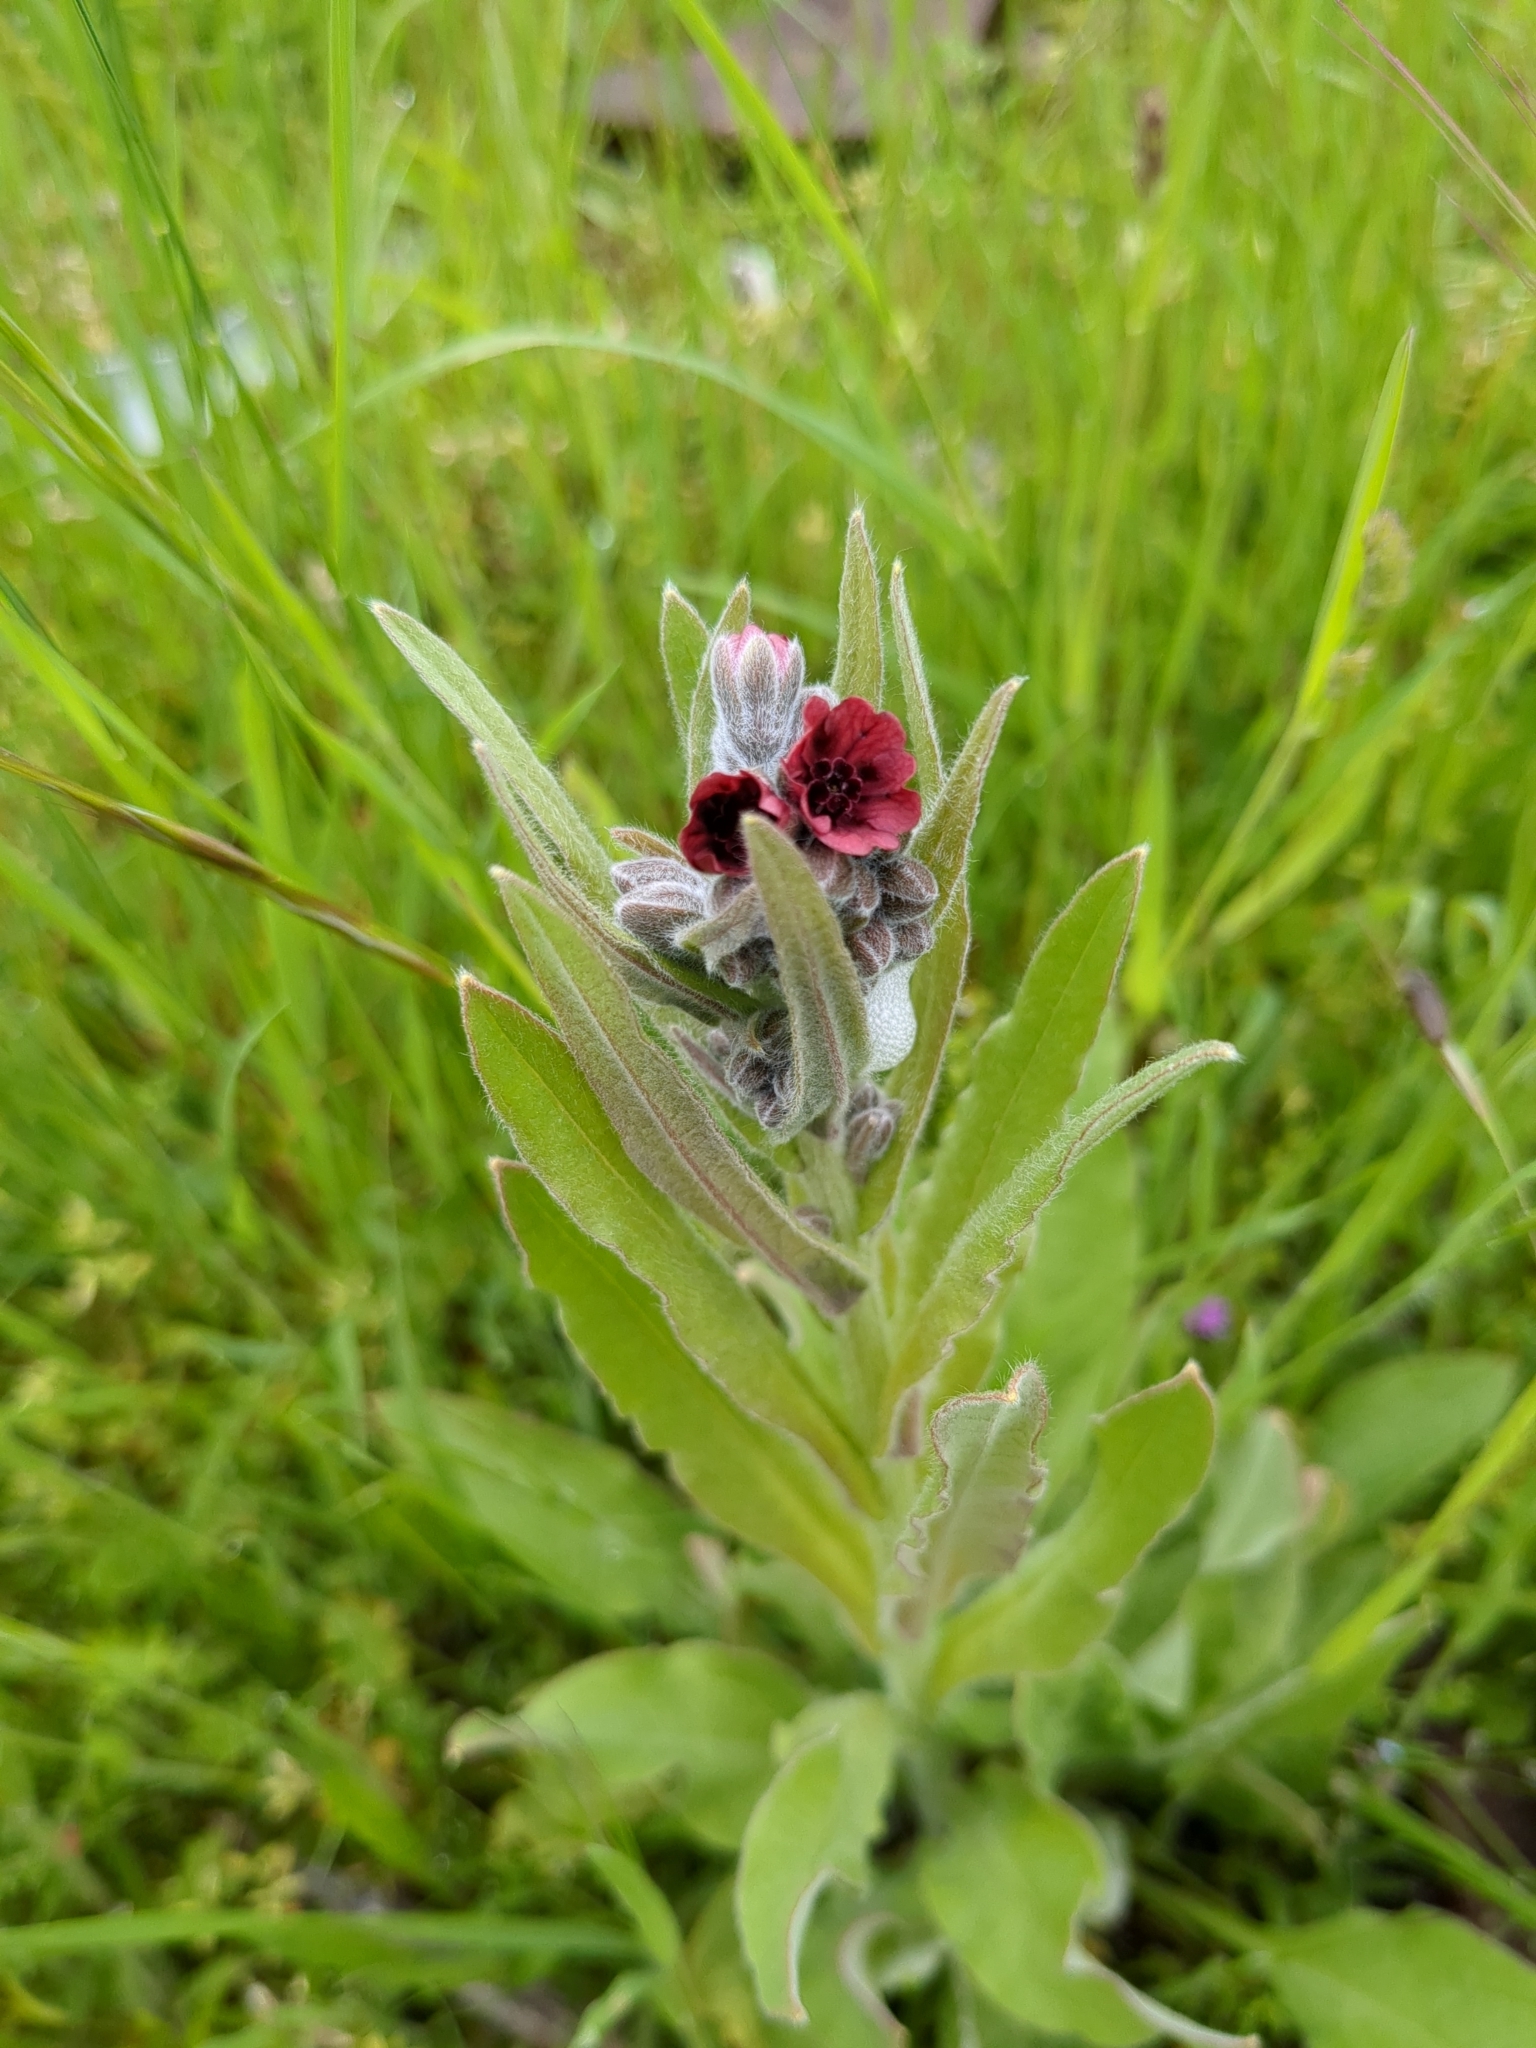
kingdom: Plantae
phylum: Tracheophyta
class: Magnoliopsida
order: Boraginales
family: Boraginaceae
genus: Cynoglossum
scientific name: Cynoglossum officinale
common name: Hound's-tongue
